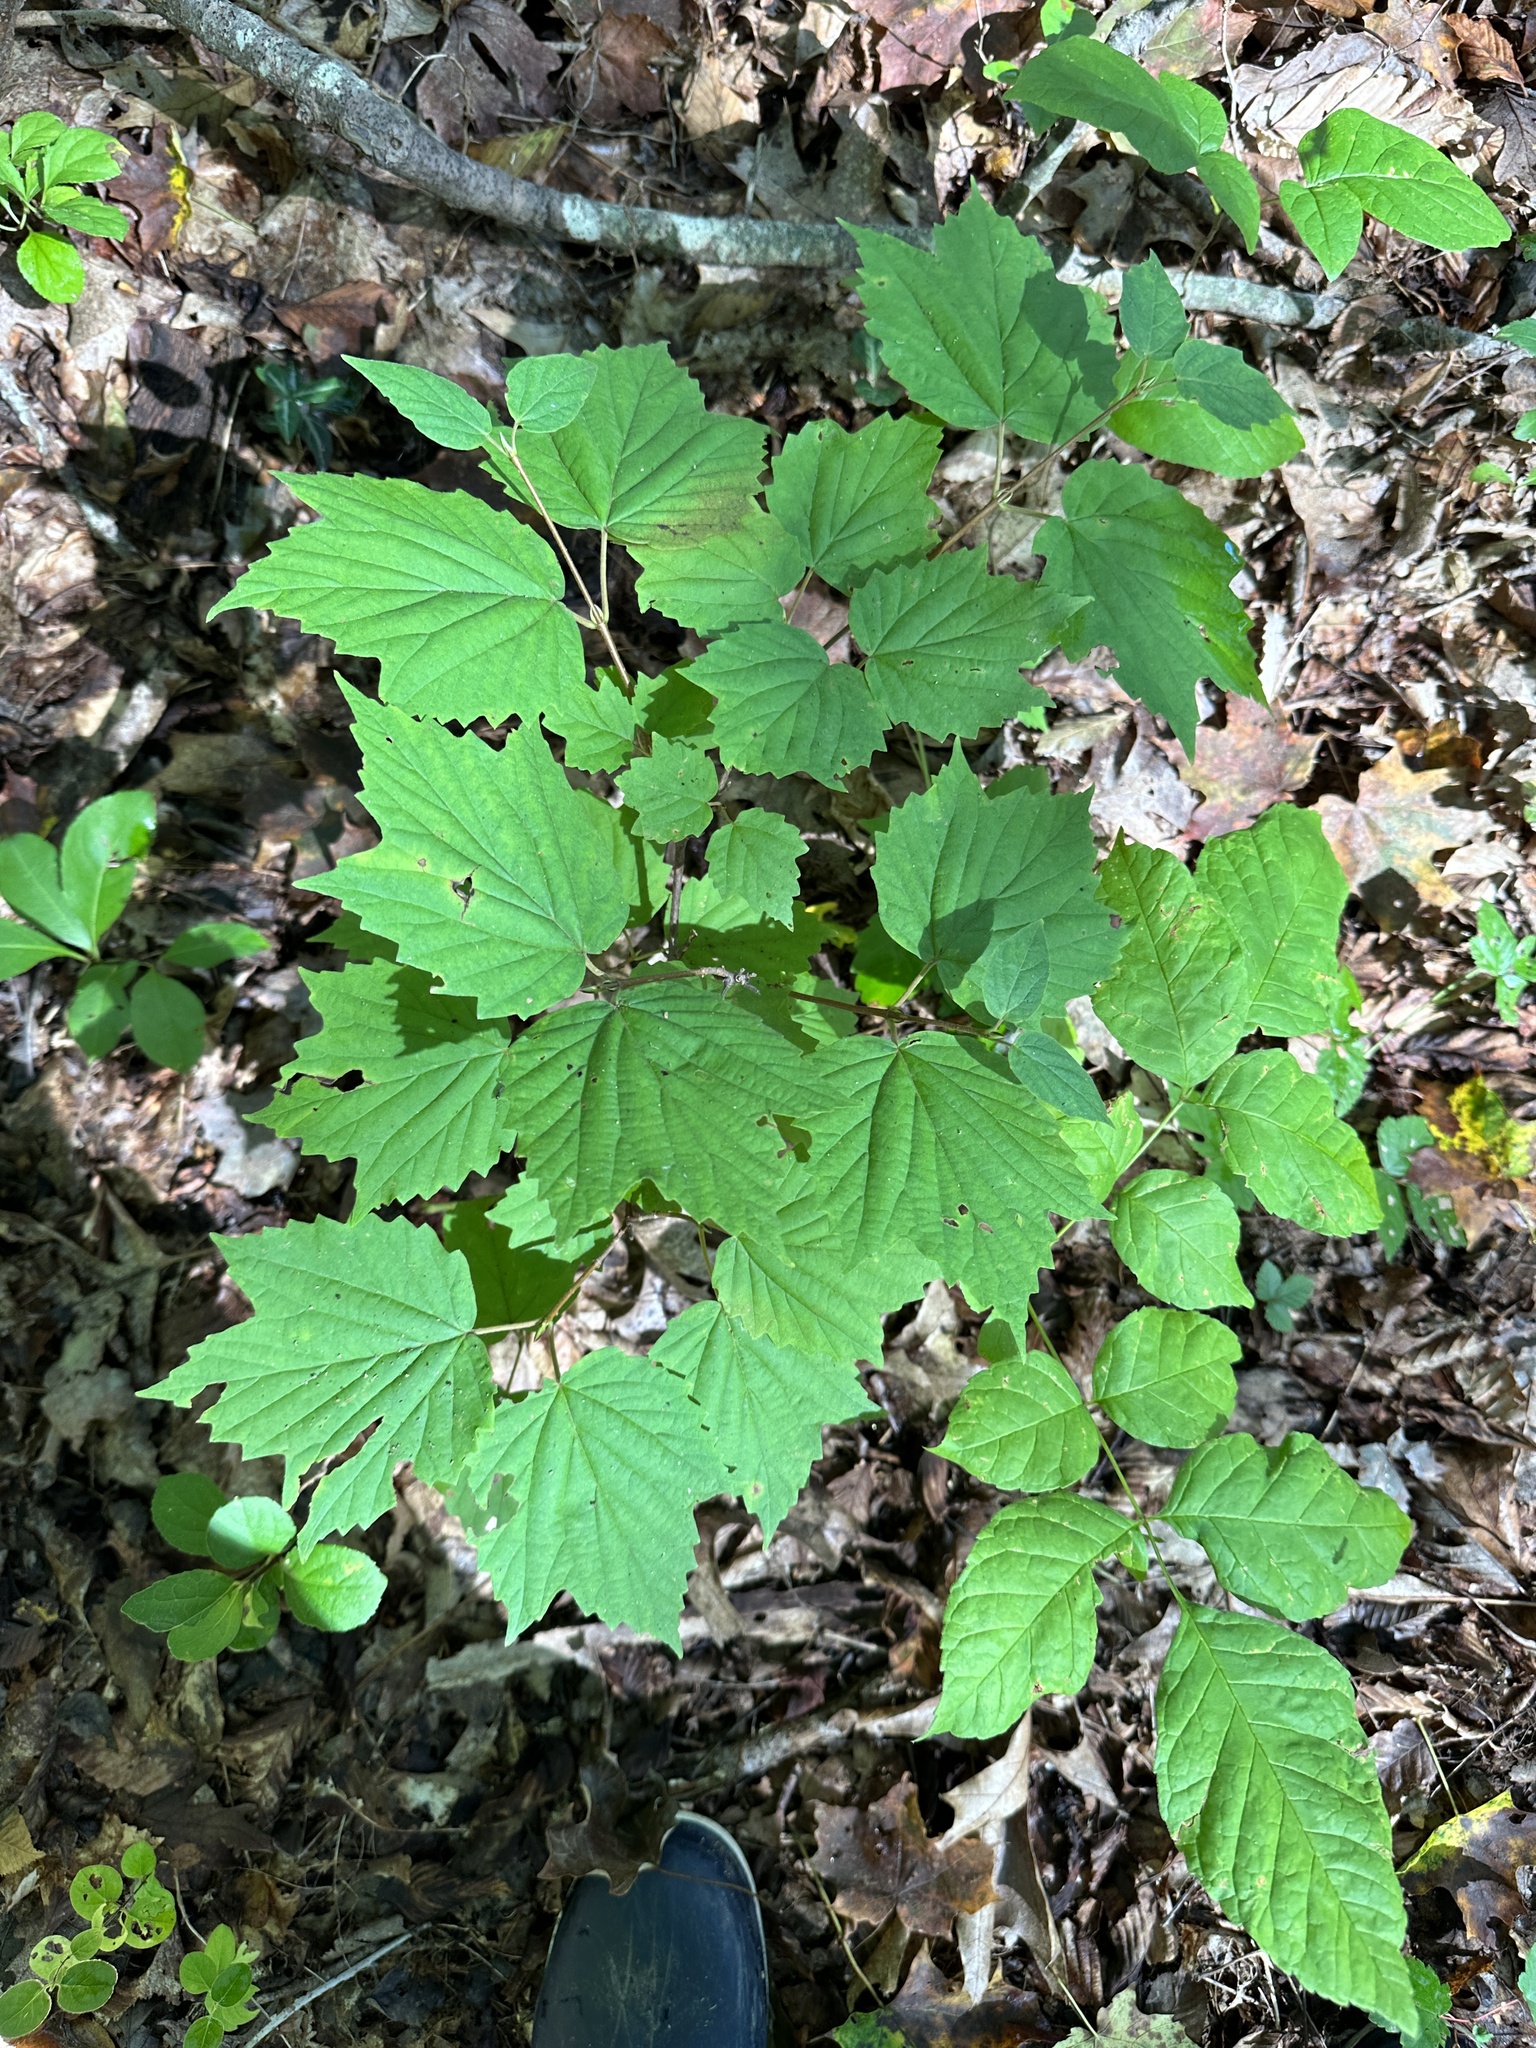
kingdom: Plantae
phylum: Tracheophyta
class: Magnoliopsida
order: Dipsacales
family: Viburnaceae
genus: Viburnum
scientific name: Viburnum acerifolium
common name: Dockmackie
